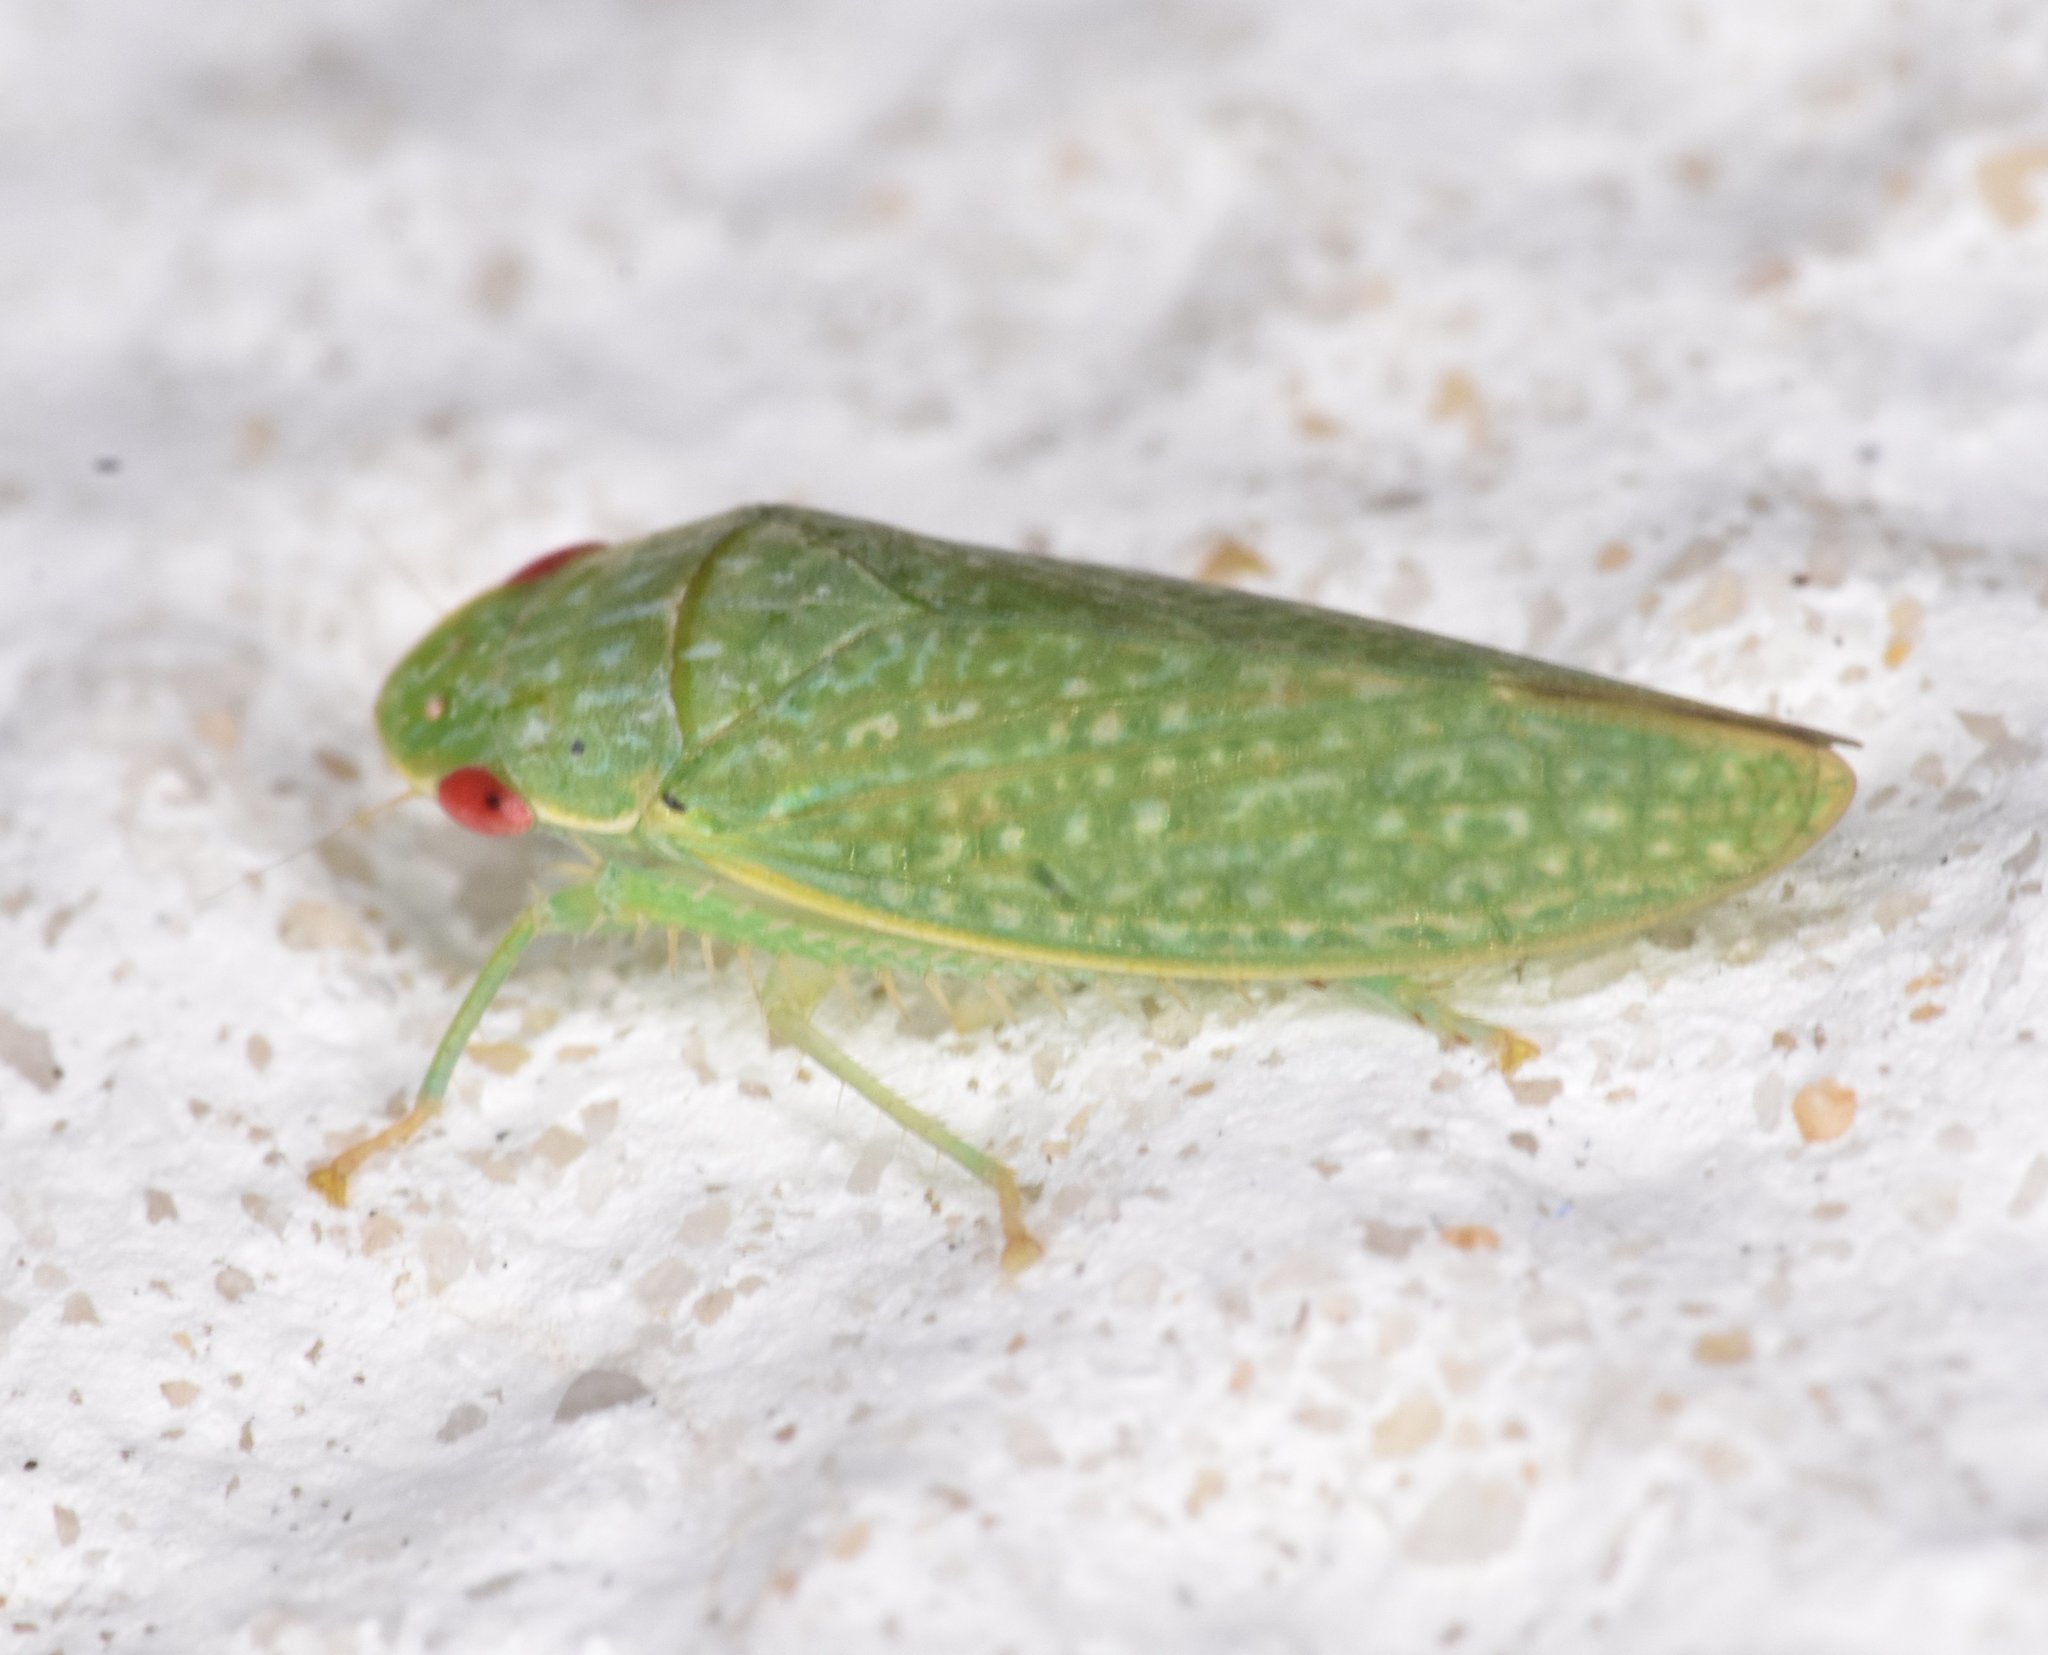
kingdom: Animalia
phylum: Arthropoda
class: Insecta
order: Hemiptera
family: Cicadellidae
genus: Rugosana
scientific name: Rugosana querci
